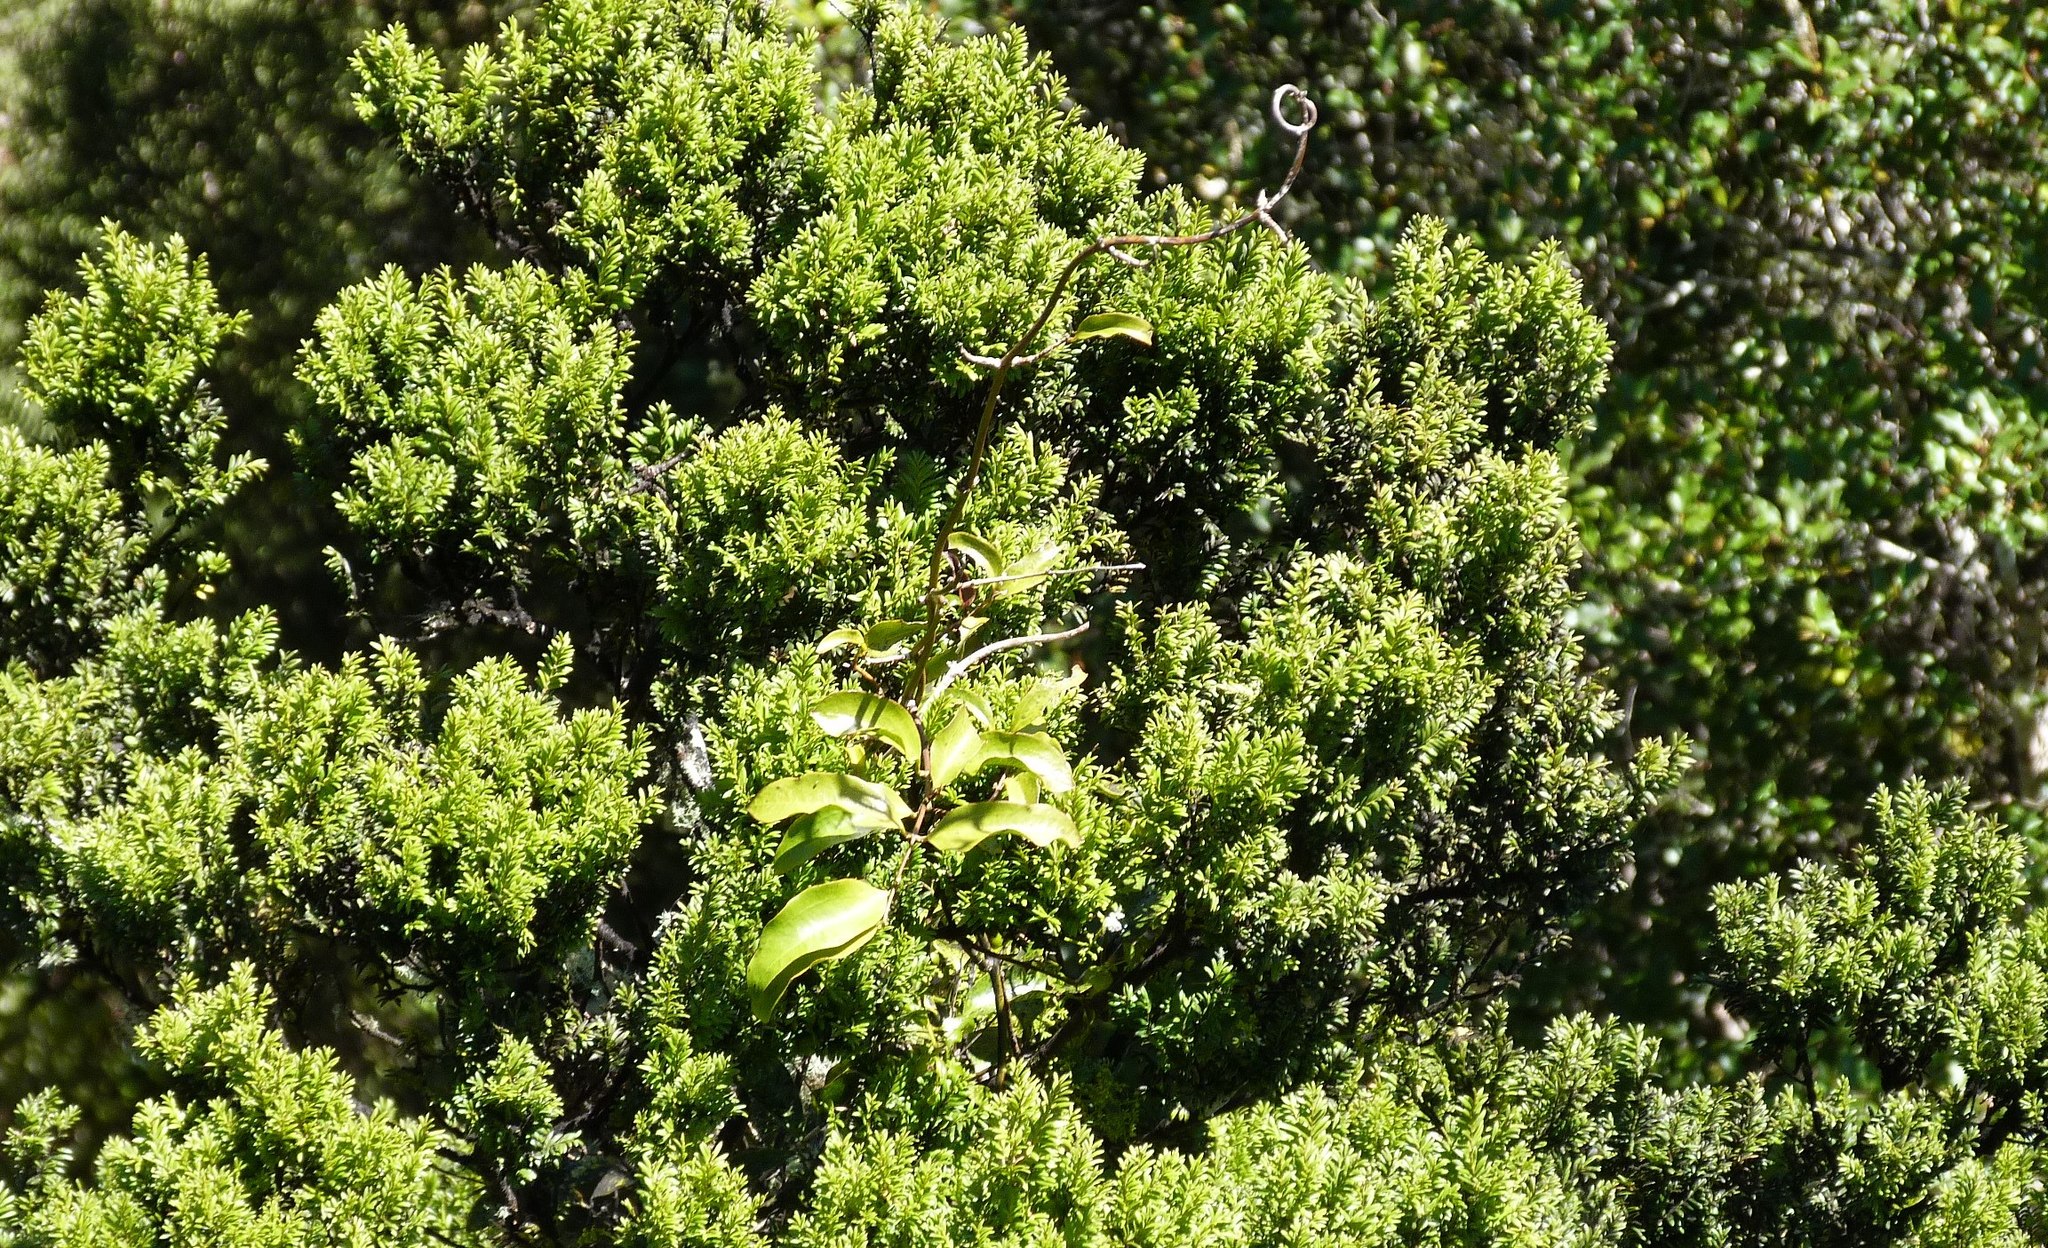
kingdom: Plantae
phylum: Tracheophyta
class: Liliopsida
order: Liliales
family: Ripogonaceae
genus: Ripogonum
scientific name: Ripogonum scandens
